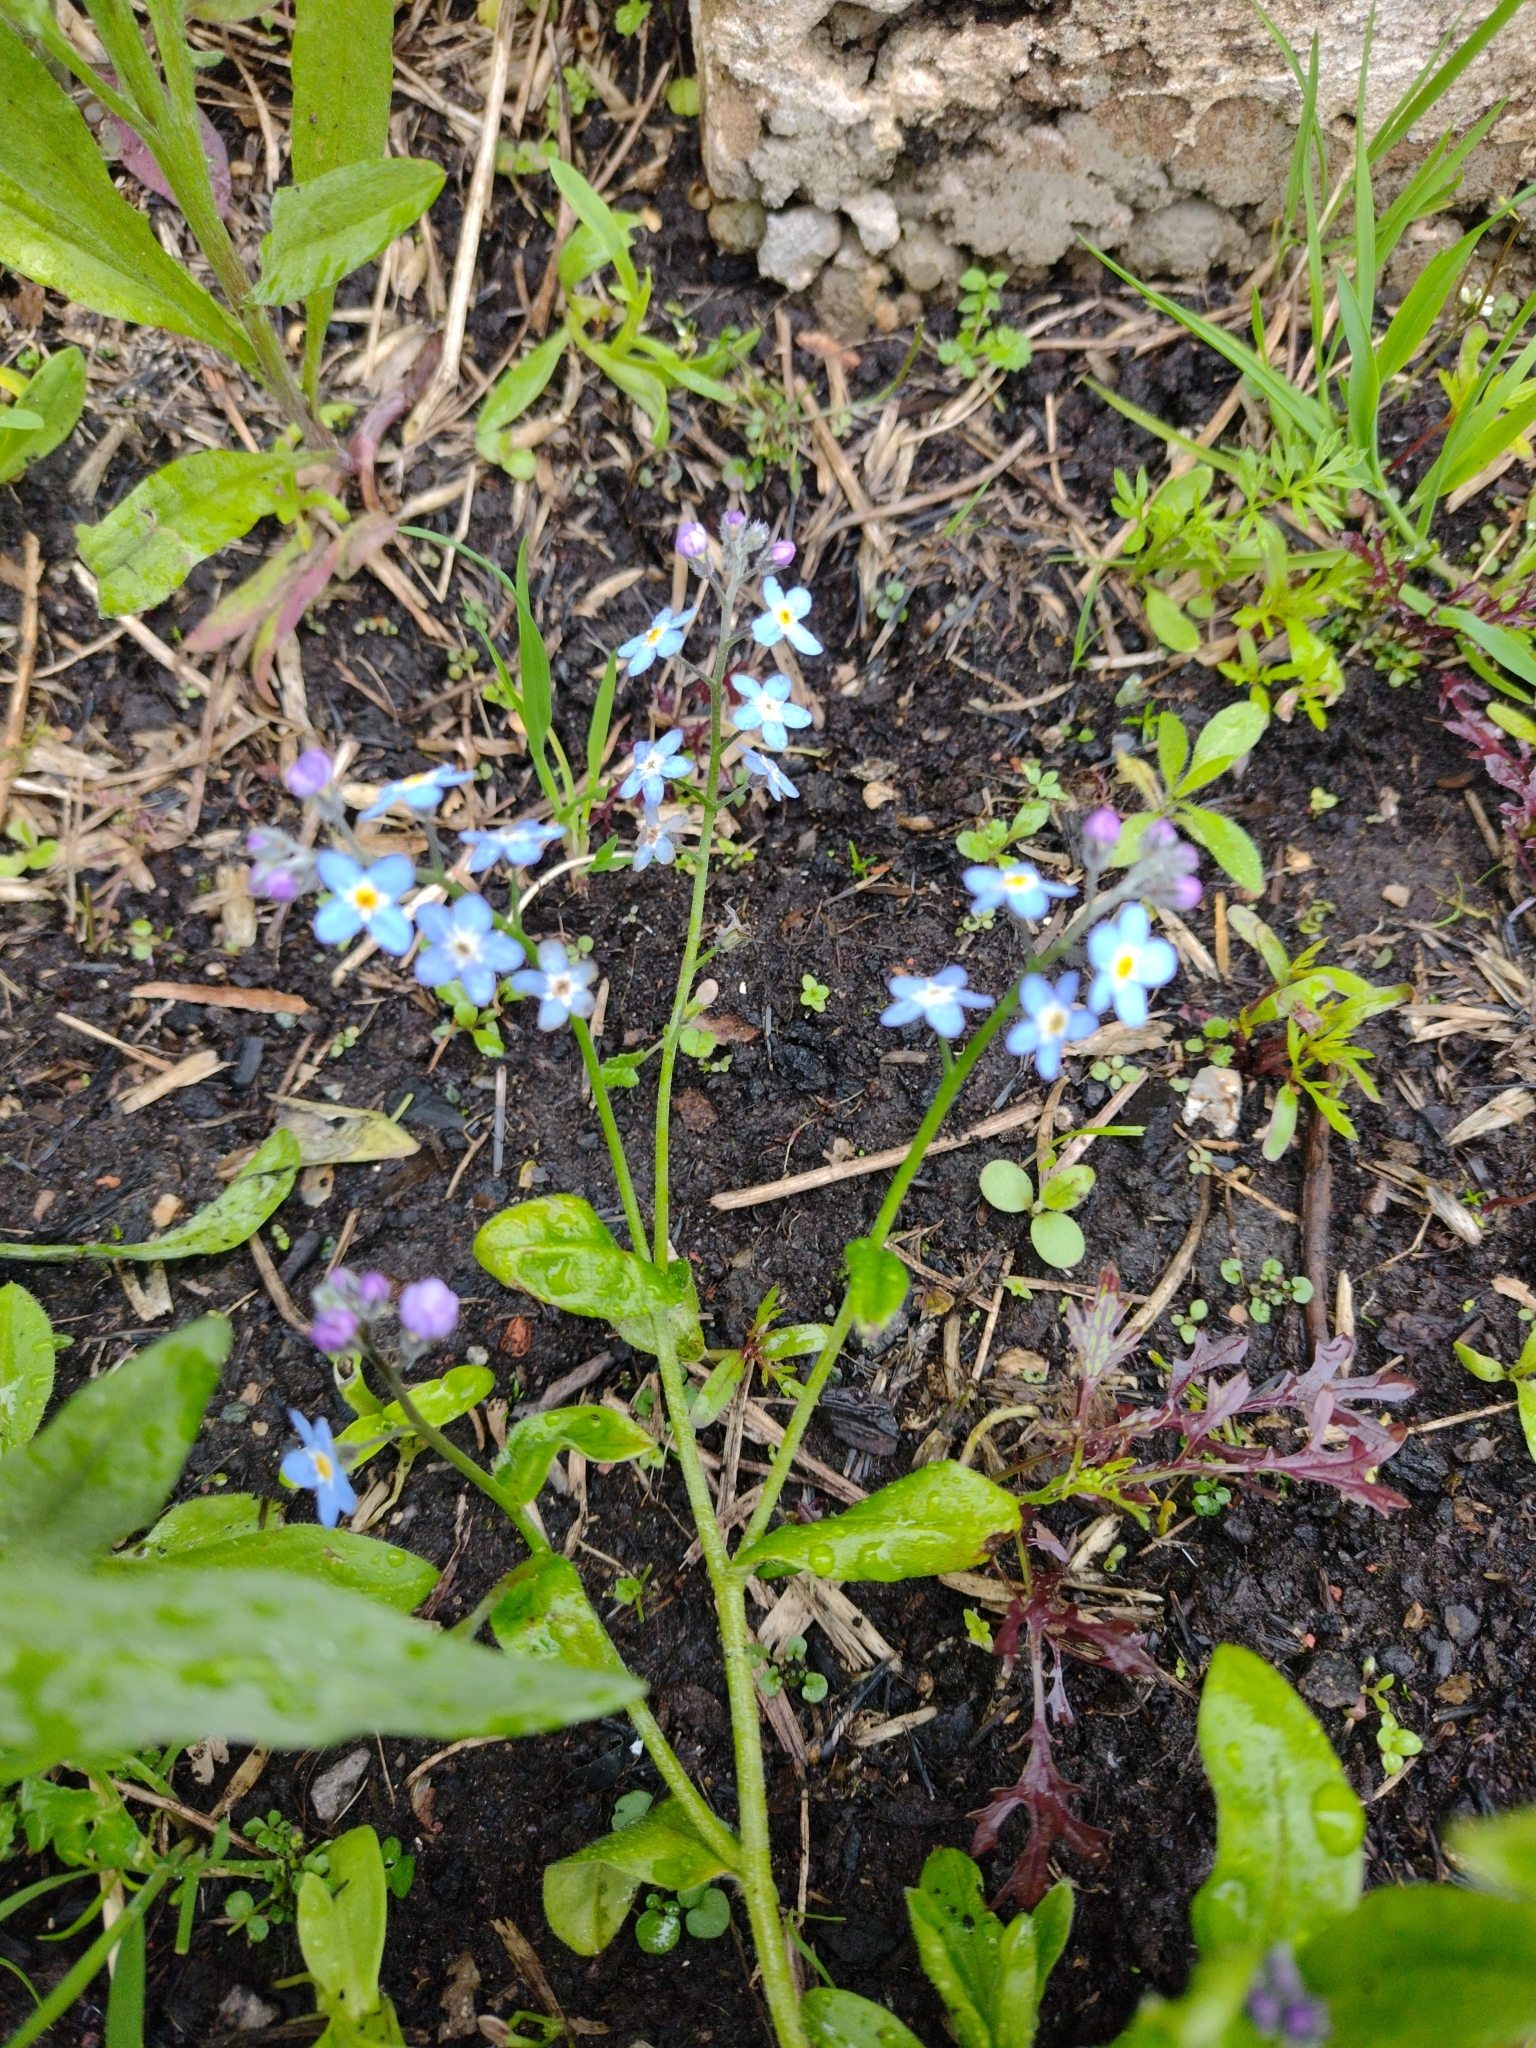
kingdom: Plantae
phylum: Tracheophyta
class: Magnoliopsida
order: Boraginales
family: Boraginaceae
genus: Myosotis
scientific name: Myosotis sylvatica
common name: Wood forget-me-not
